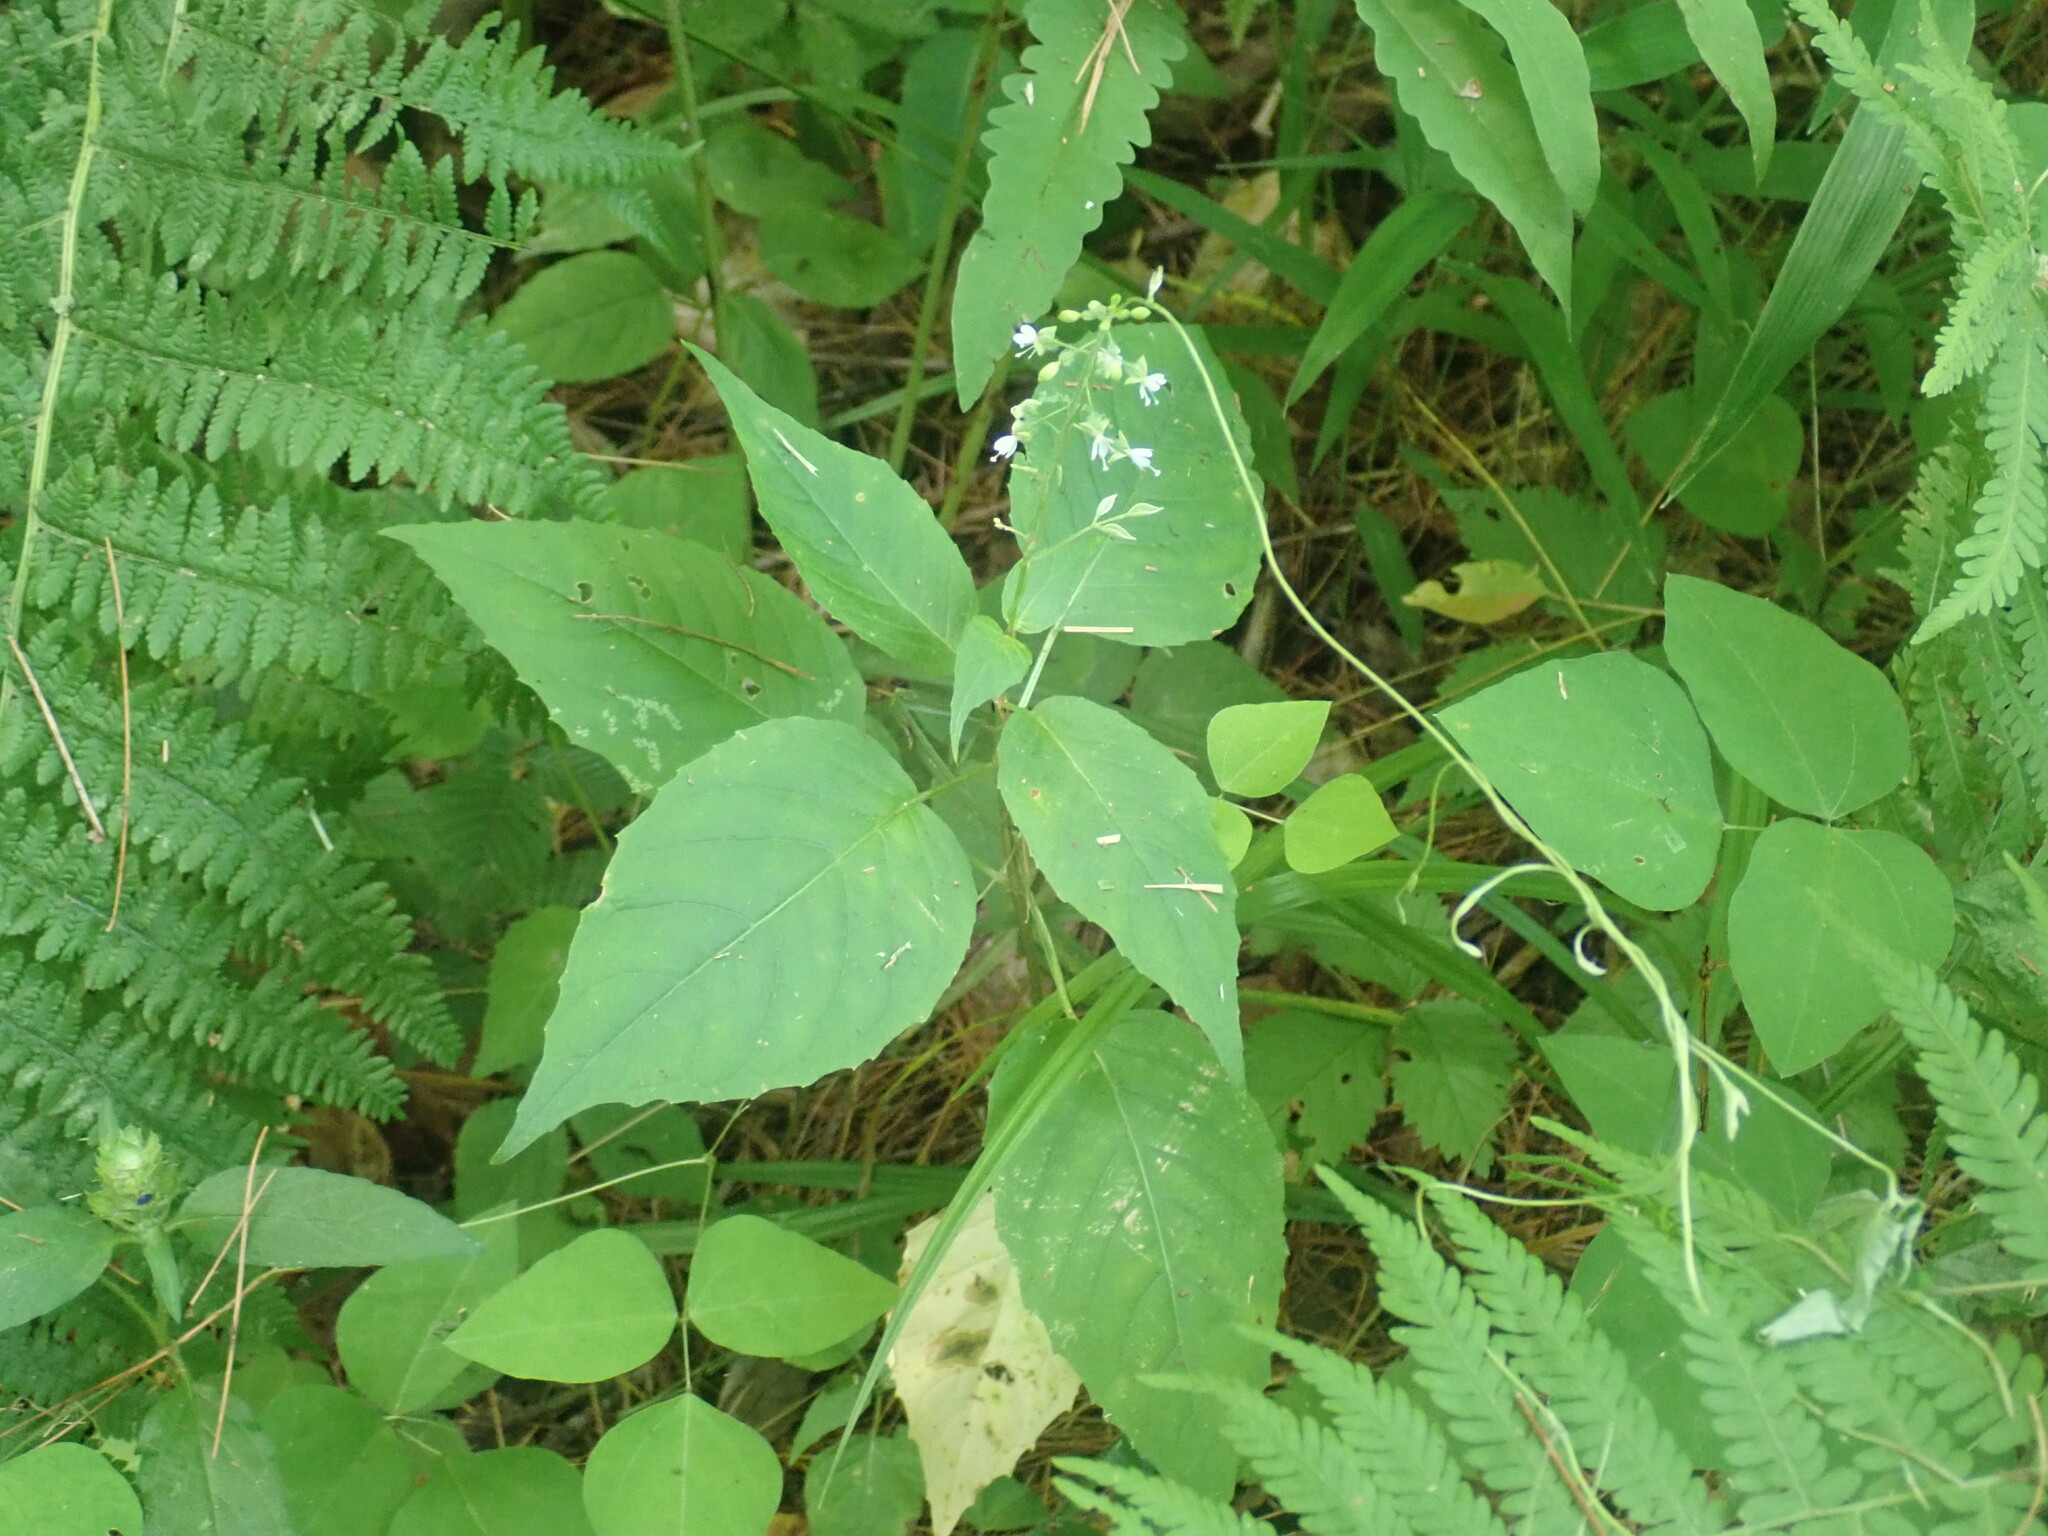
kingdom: Plantae
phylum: Tracheophyta
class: Magnoliopsida
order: Myrtales
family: Onagraceae
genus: Circaea
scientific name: Circaea canadensis
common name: Broad-leaved enchanter's nightshade
